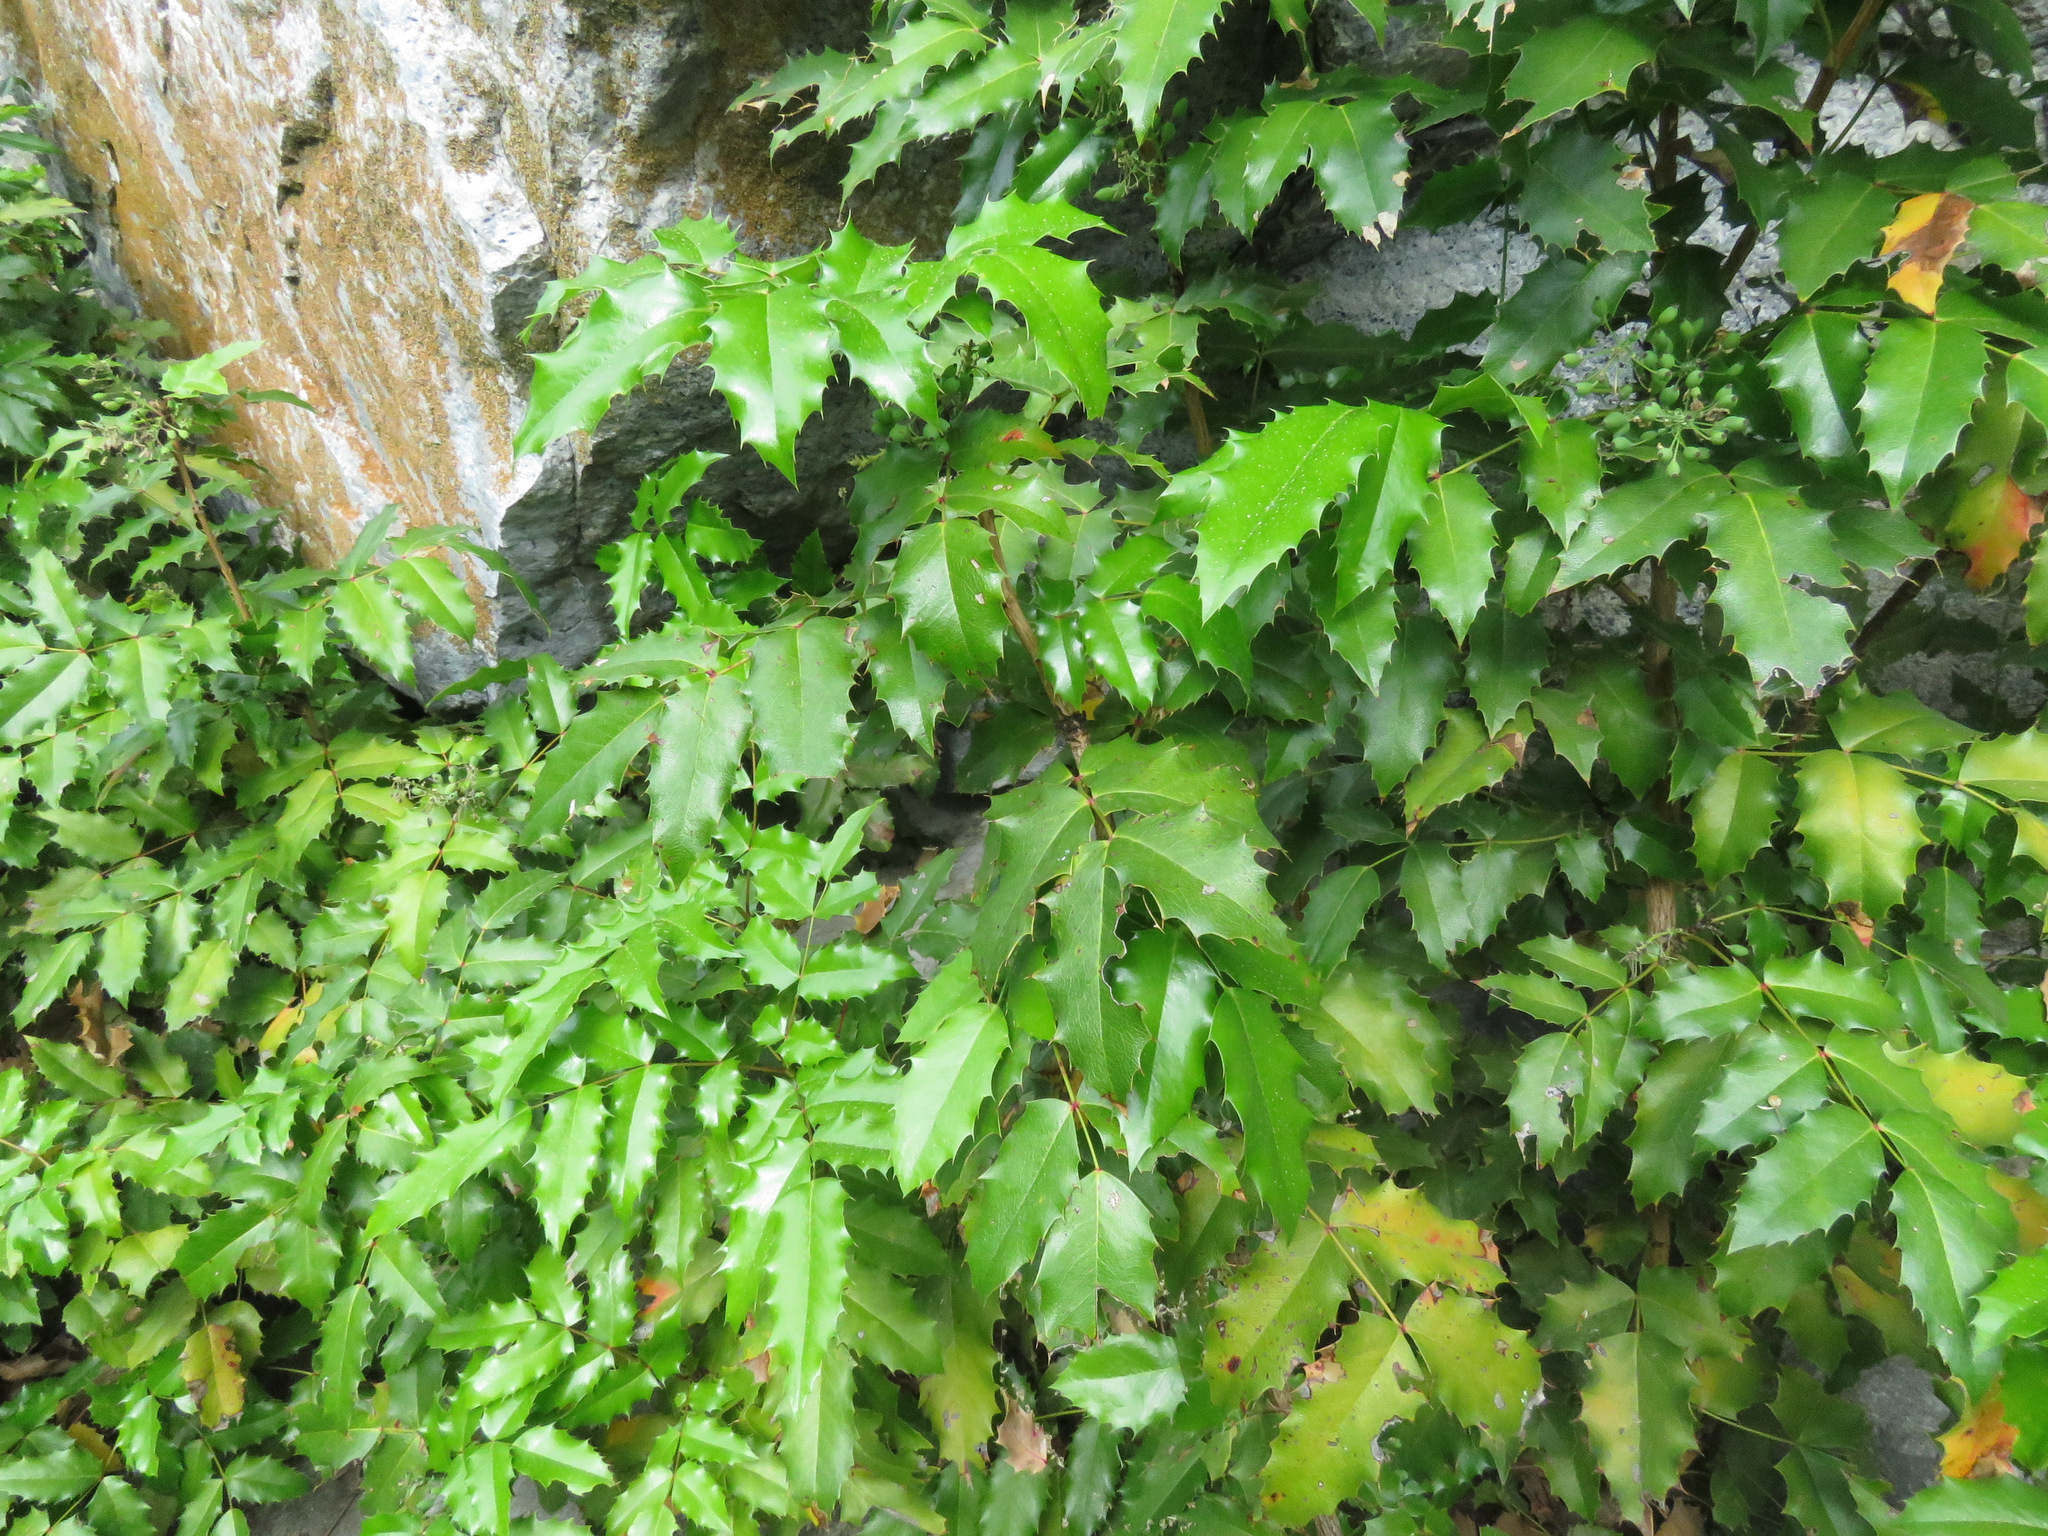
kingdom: Plantae
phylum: Tracheophyta
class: Magnoliopsida
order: Ranunculales
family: Berberidaceae
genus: Mahonia
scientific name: Mahonia aquifolium
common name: Oregon-grape
